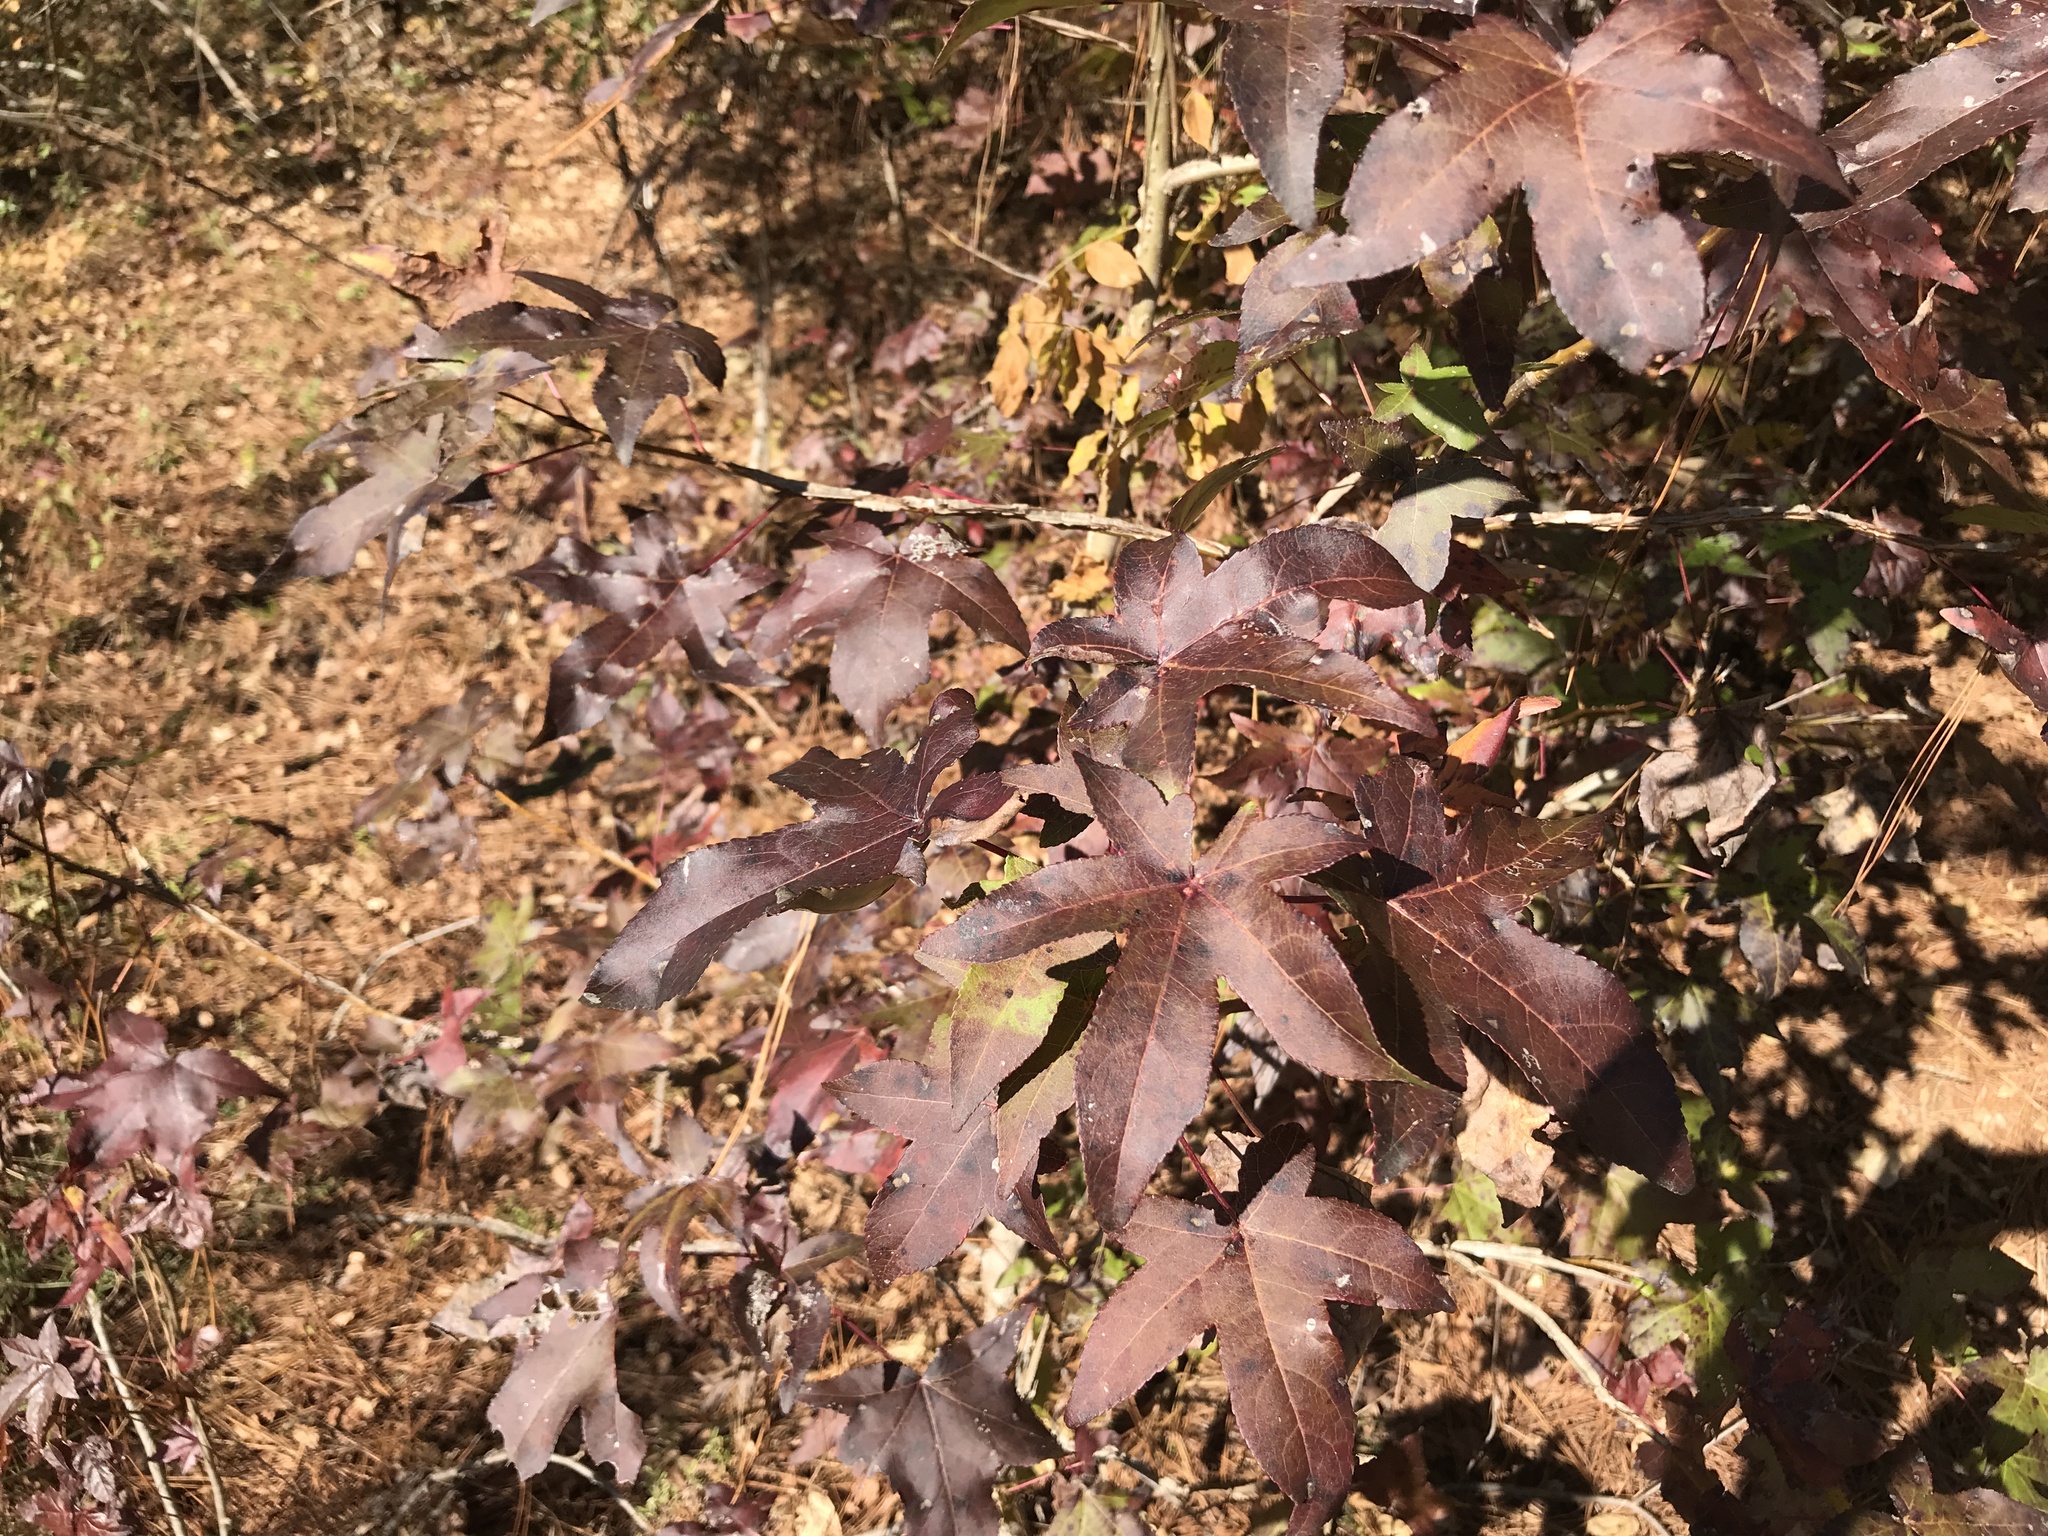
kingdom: Plantae
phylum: Tracheophyta
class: Magnoliopsida
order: Saxifragales
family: Altingiaceae
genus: Liquidambar
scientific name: Liquidambar styraciflua
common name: Sweet gum
